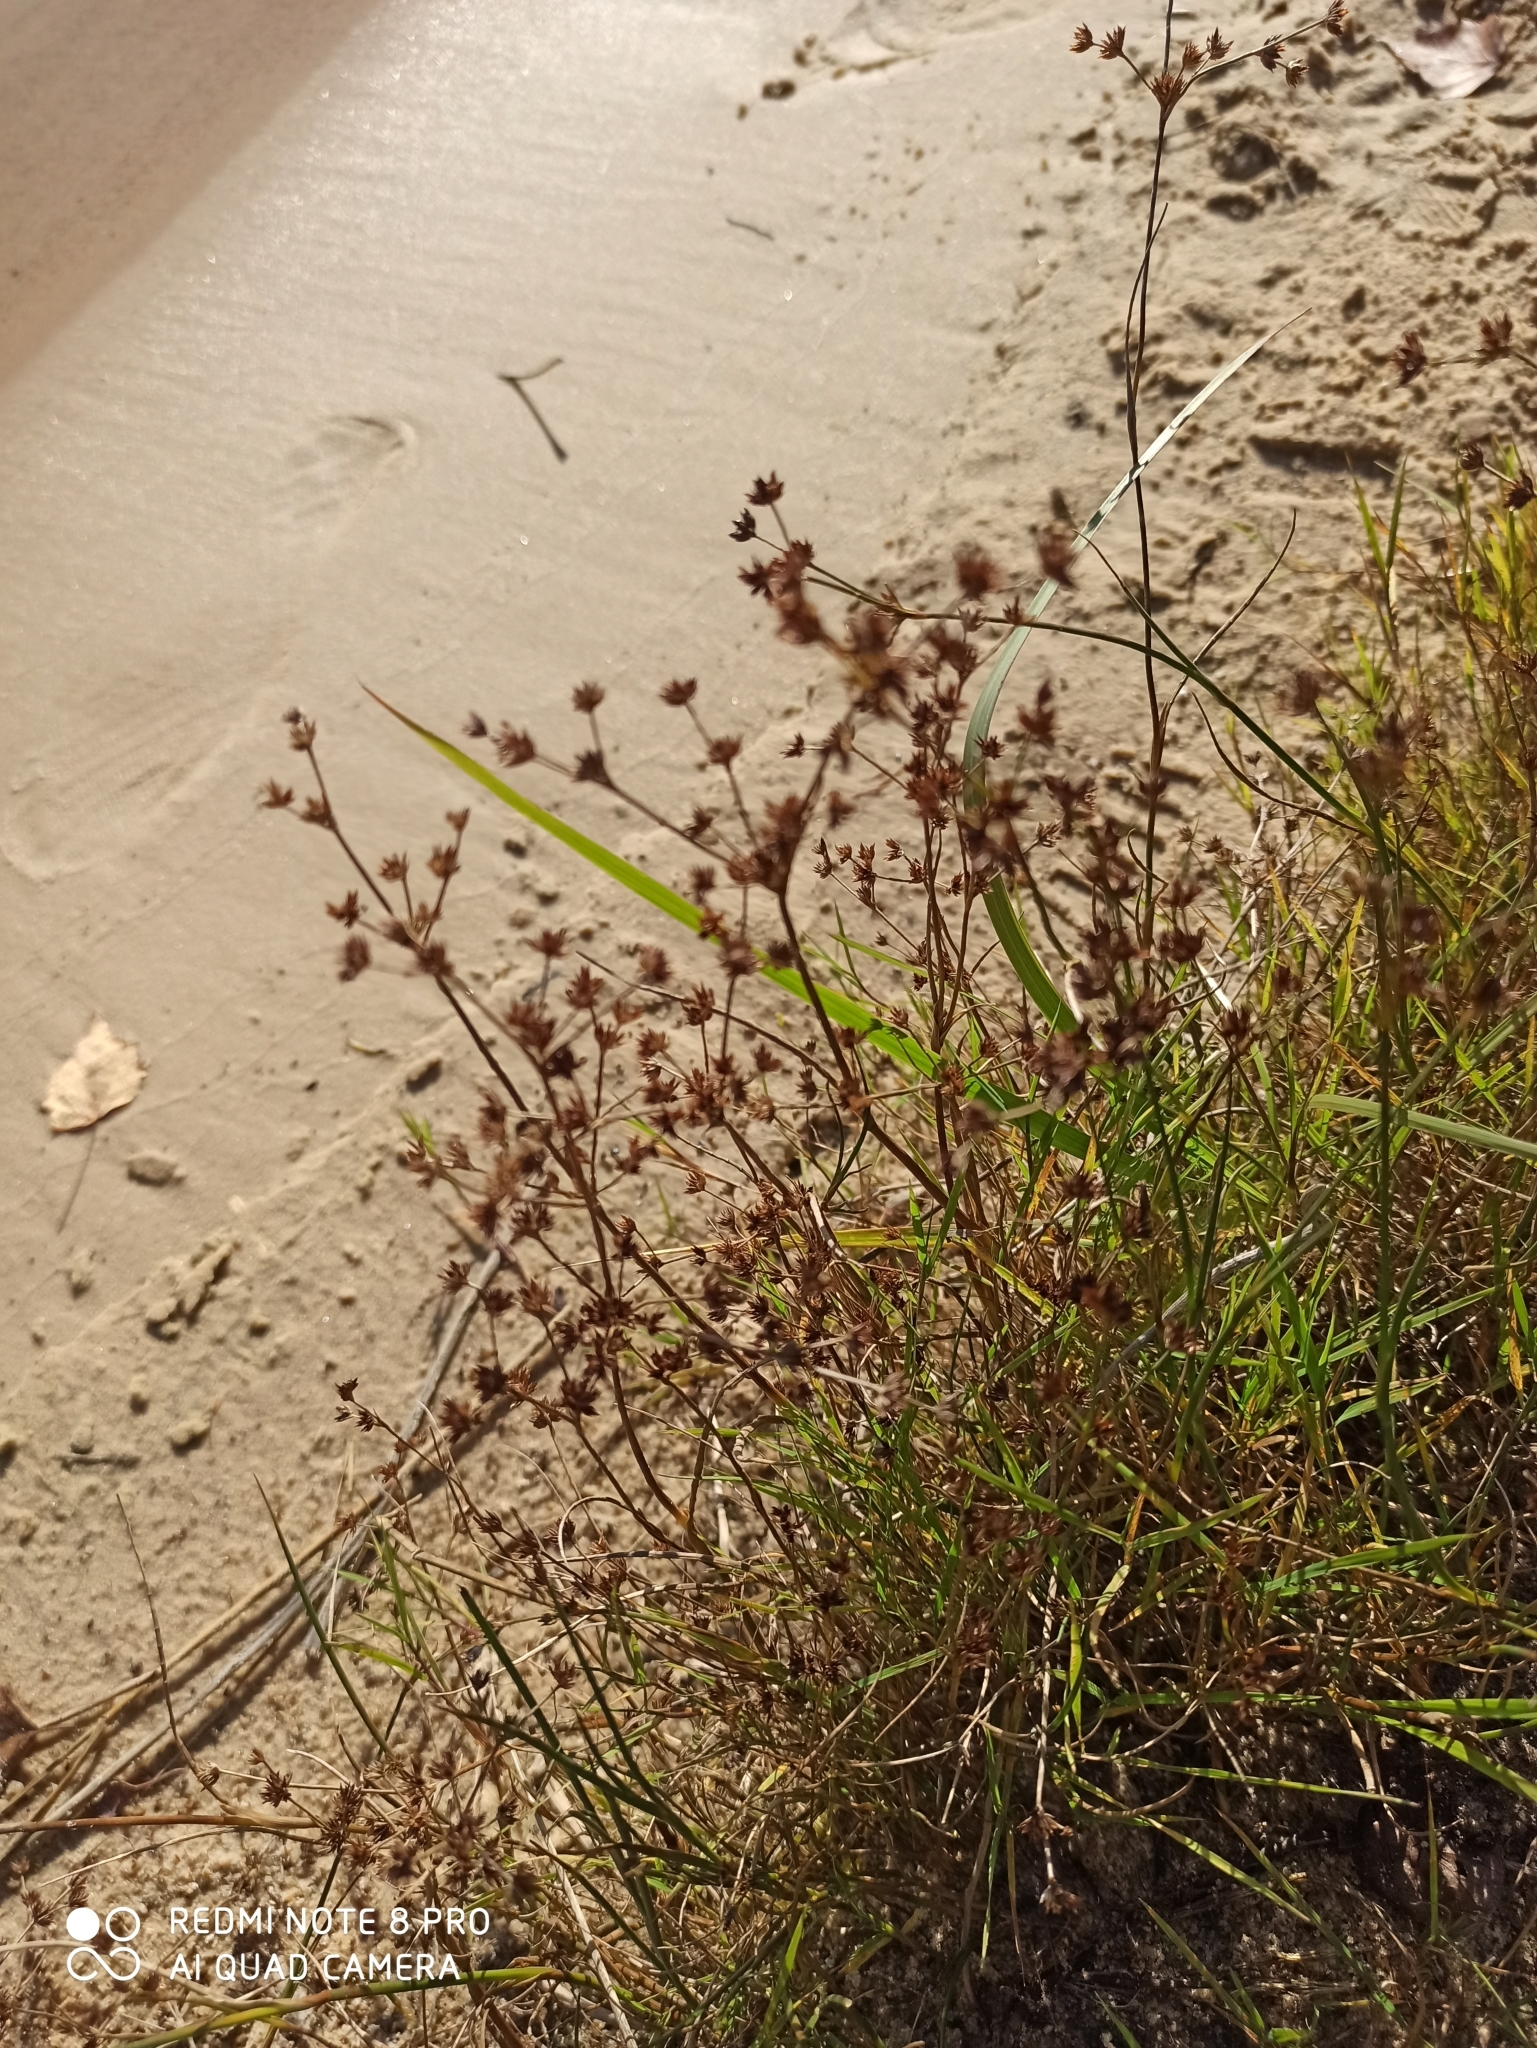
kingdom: Plantae
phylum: Tracheophyta
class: Liliopsida
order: Poales
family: Juncaceae
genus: Juncus
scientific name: Juncus articulatus
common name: Jointed rush
